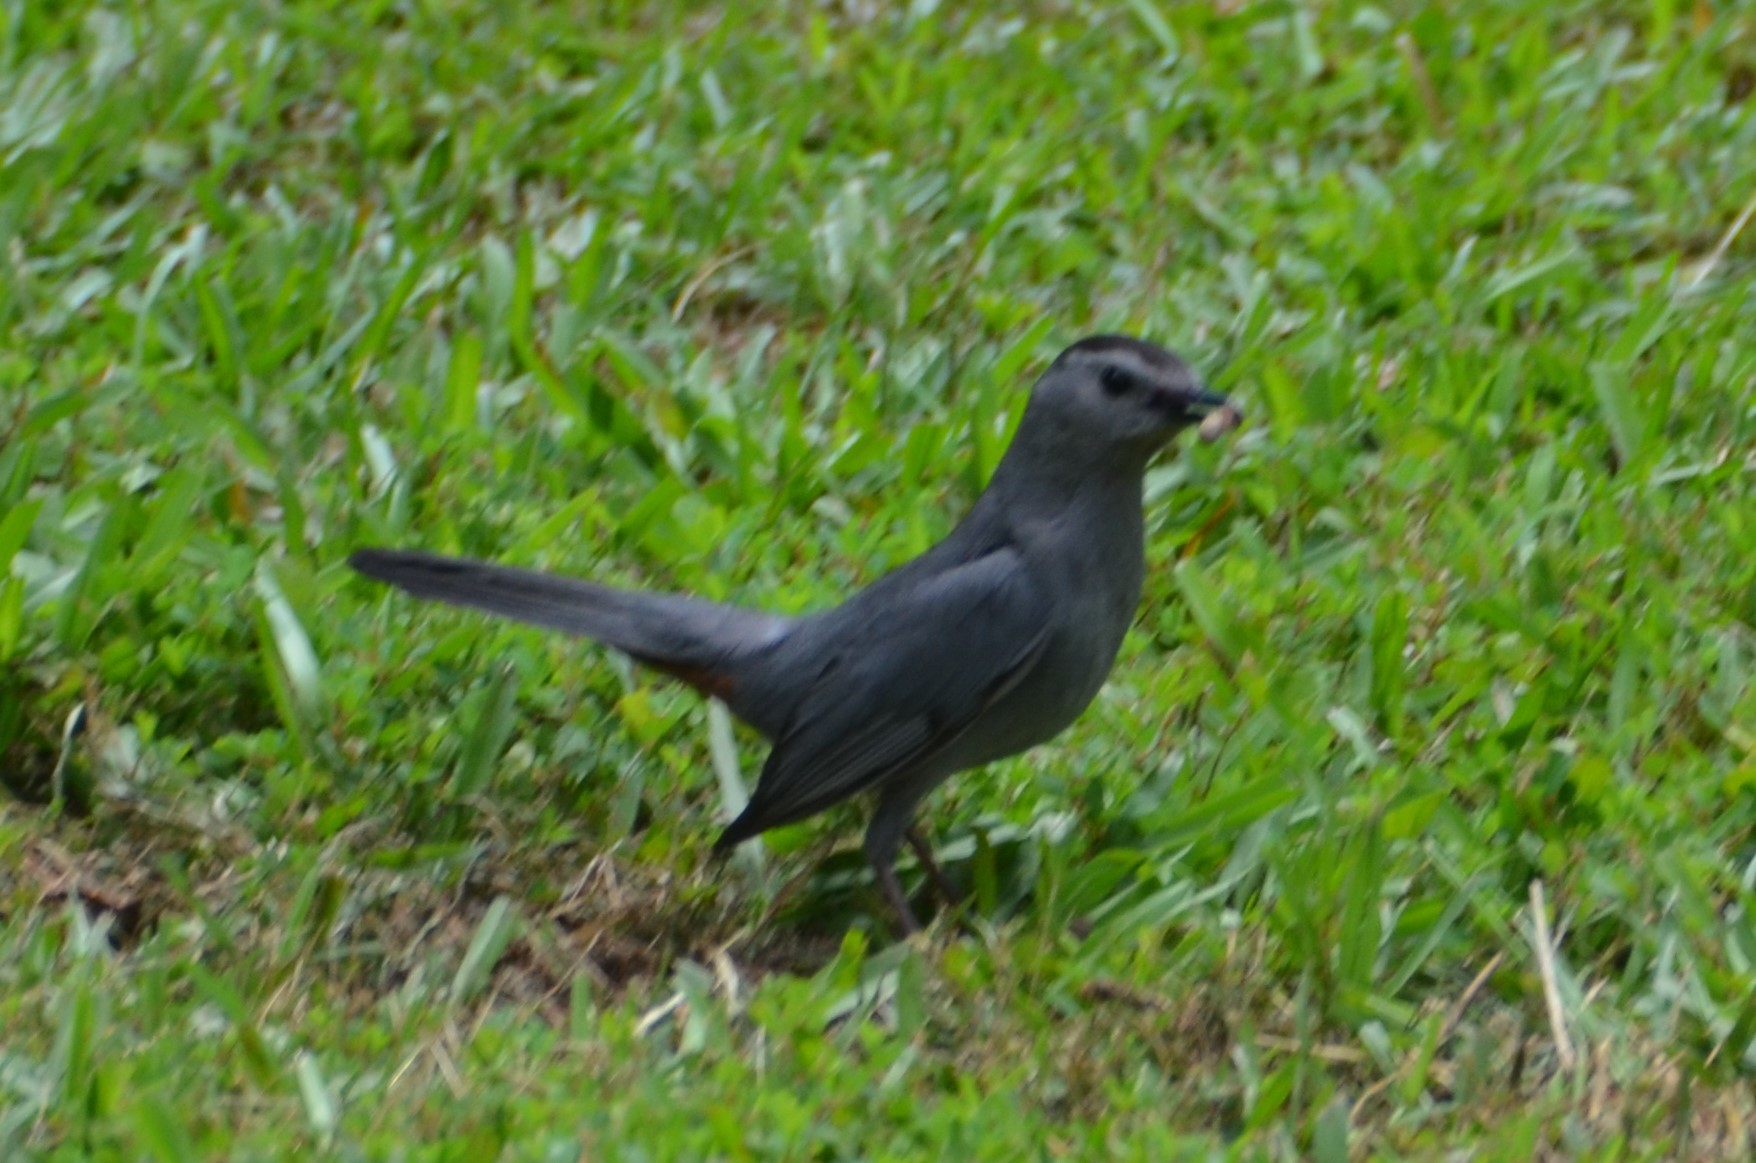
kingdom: Animalia
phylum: Chordata
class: Aves
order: Passeriformes
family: Mimidae
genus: Dumetella
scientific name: Dumetella carolinensis
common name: Gray catbird
